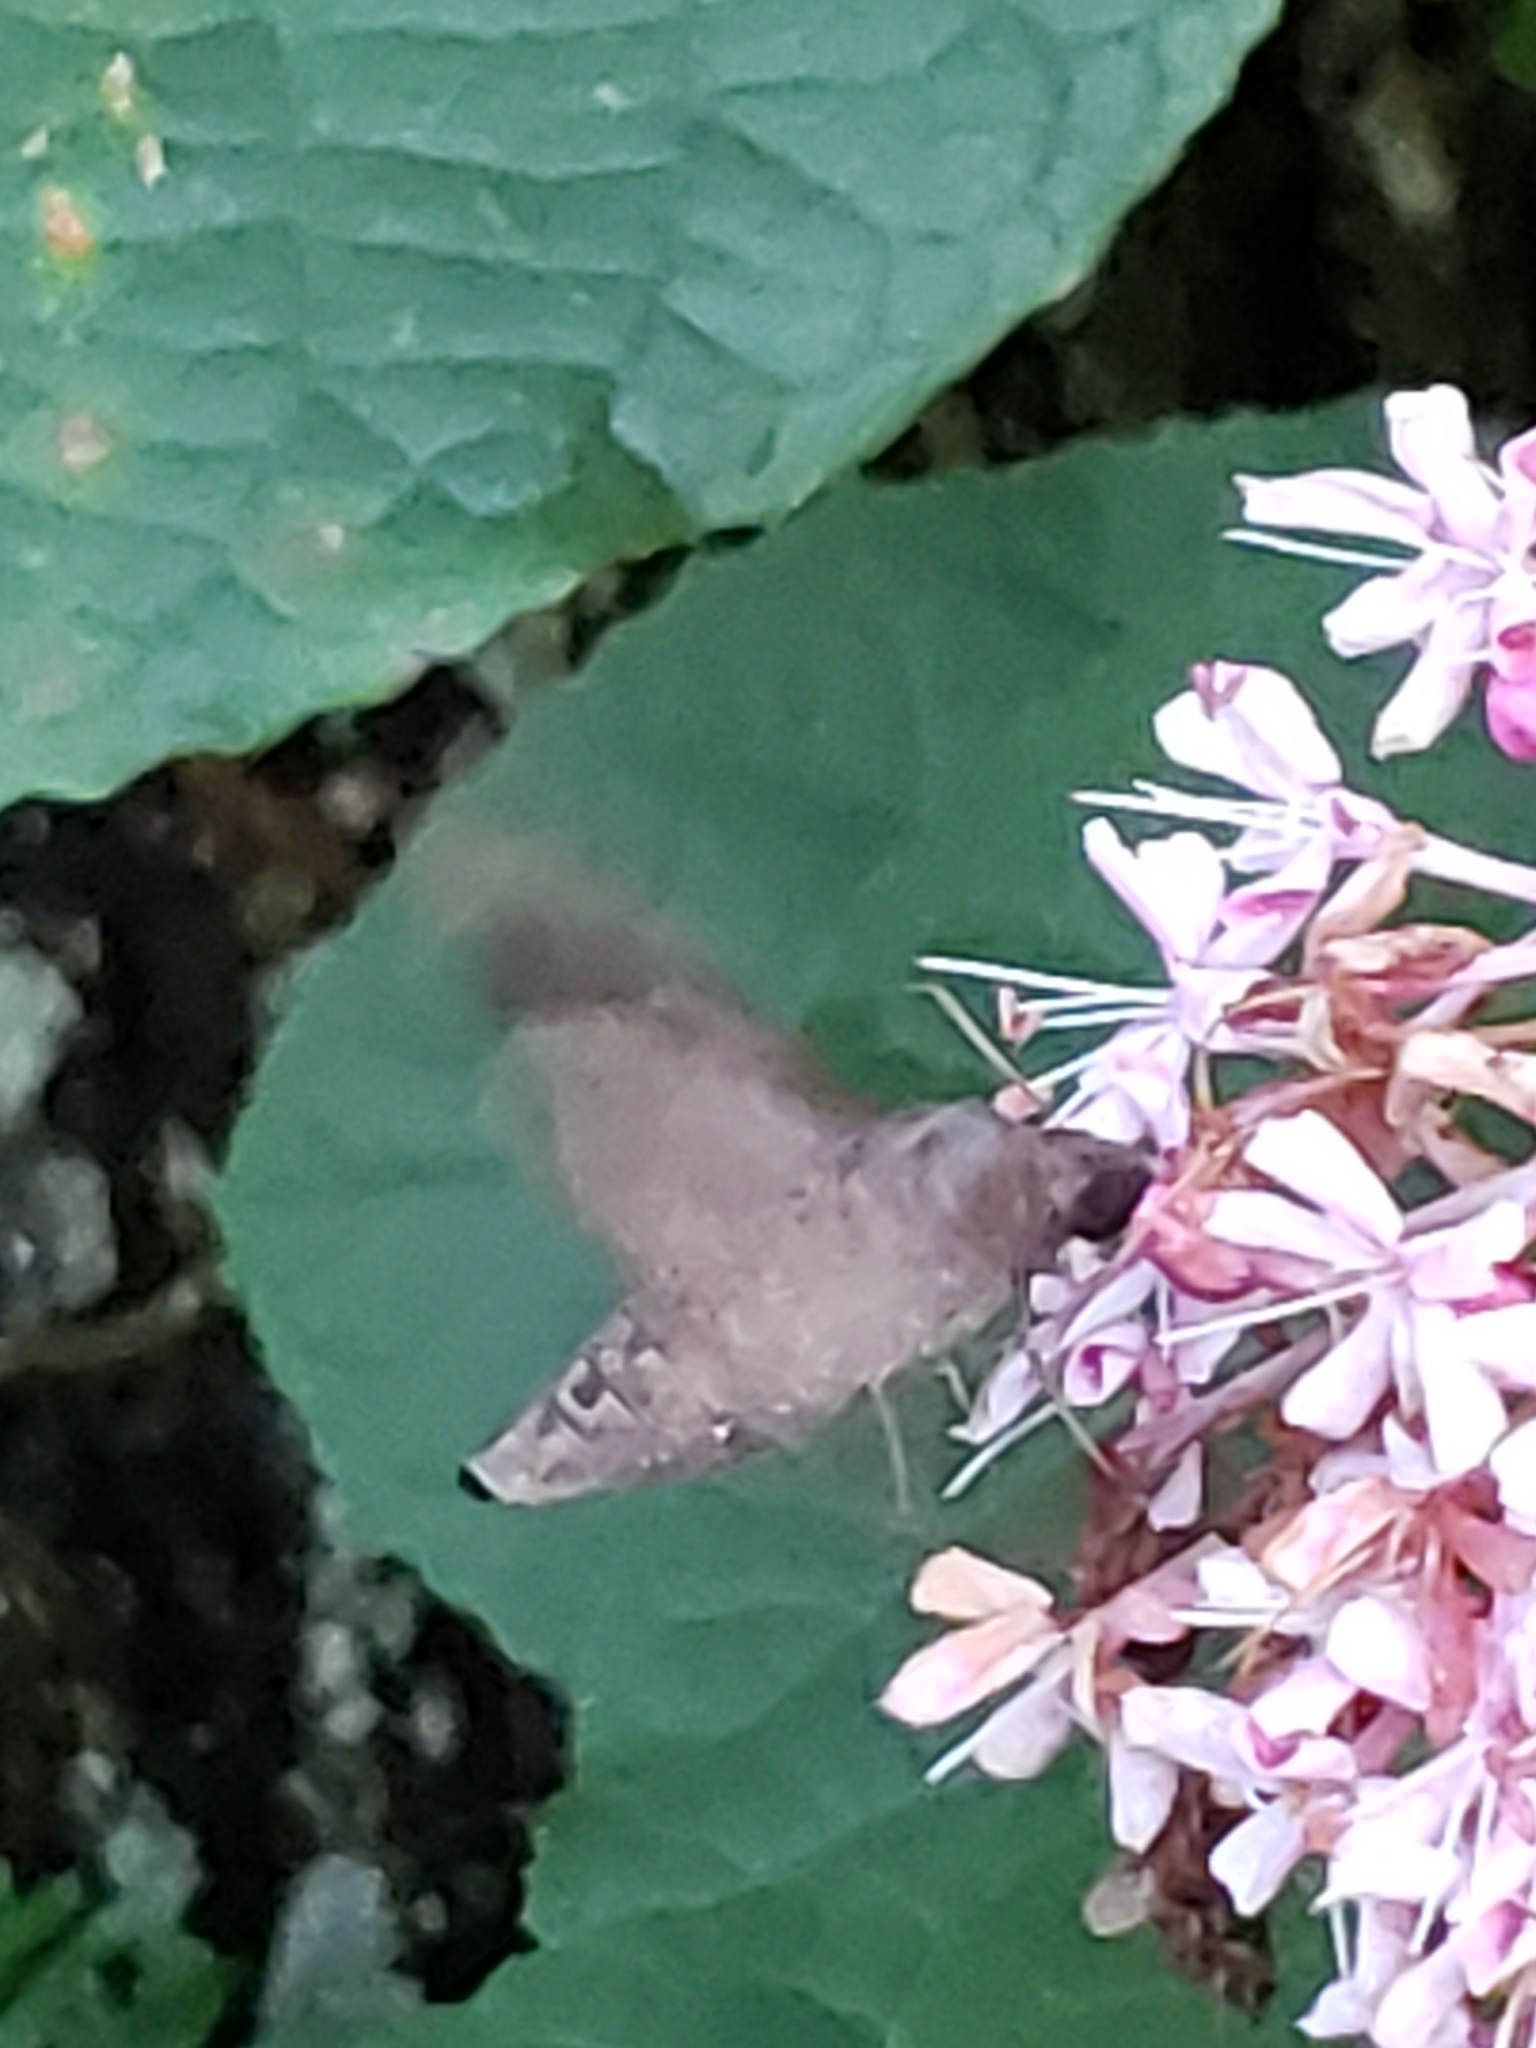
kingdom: Animalia
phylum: Arthropoda
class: Insecta
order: Lepidoptera
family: Sphingidae
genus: Enyo
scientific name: Enyo lugubris
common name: Mournful sphinx
